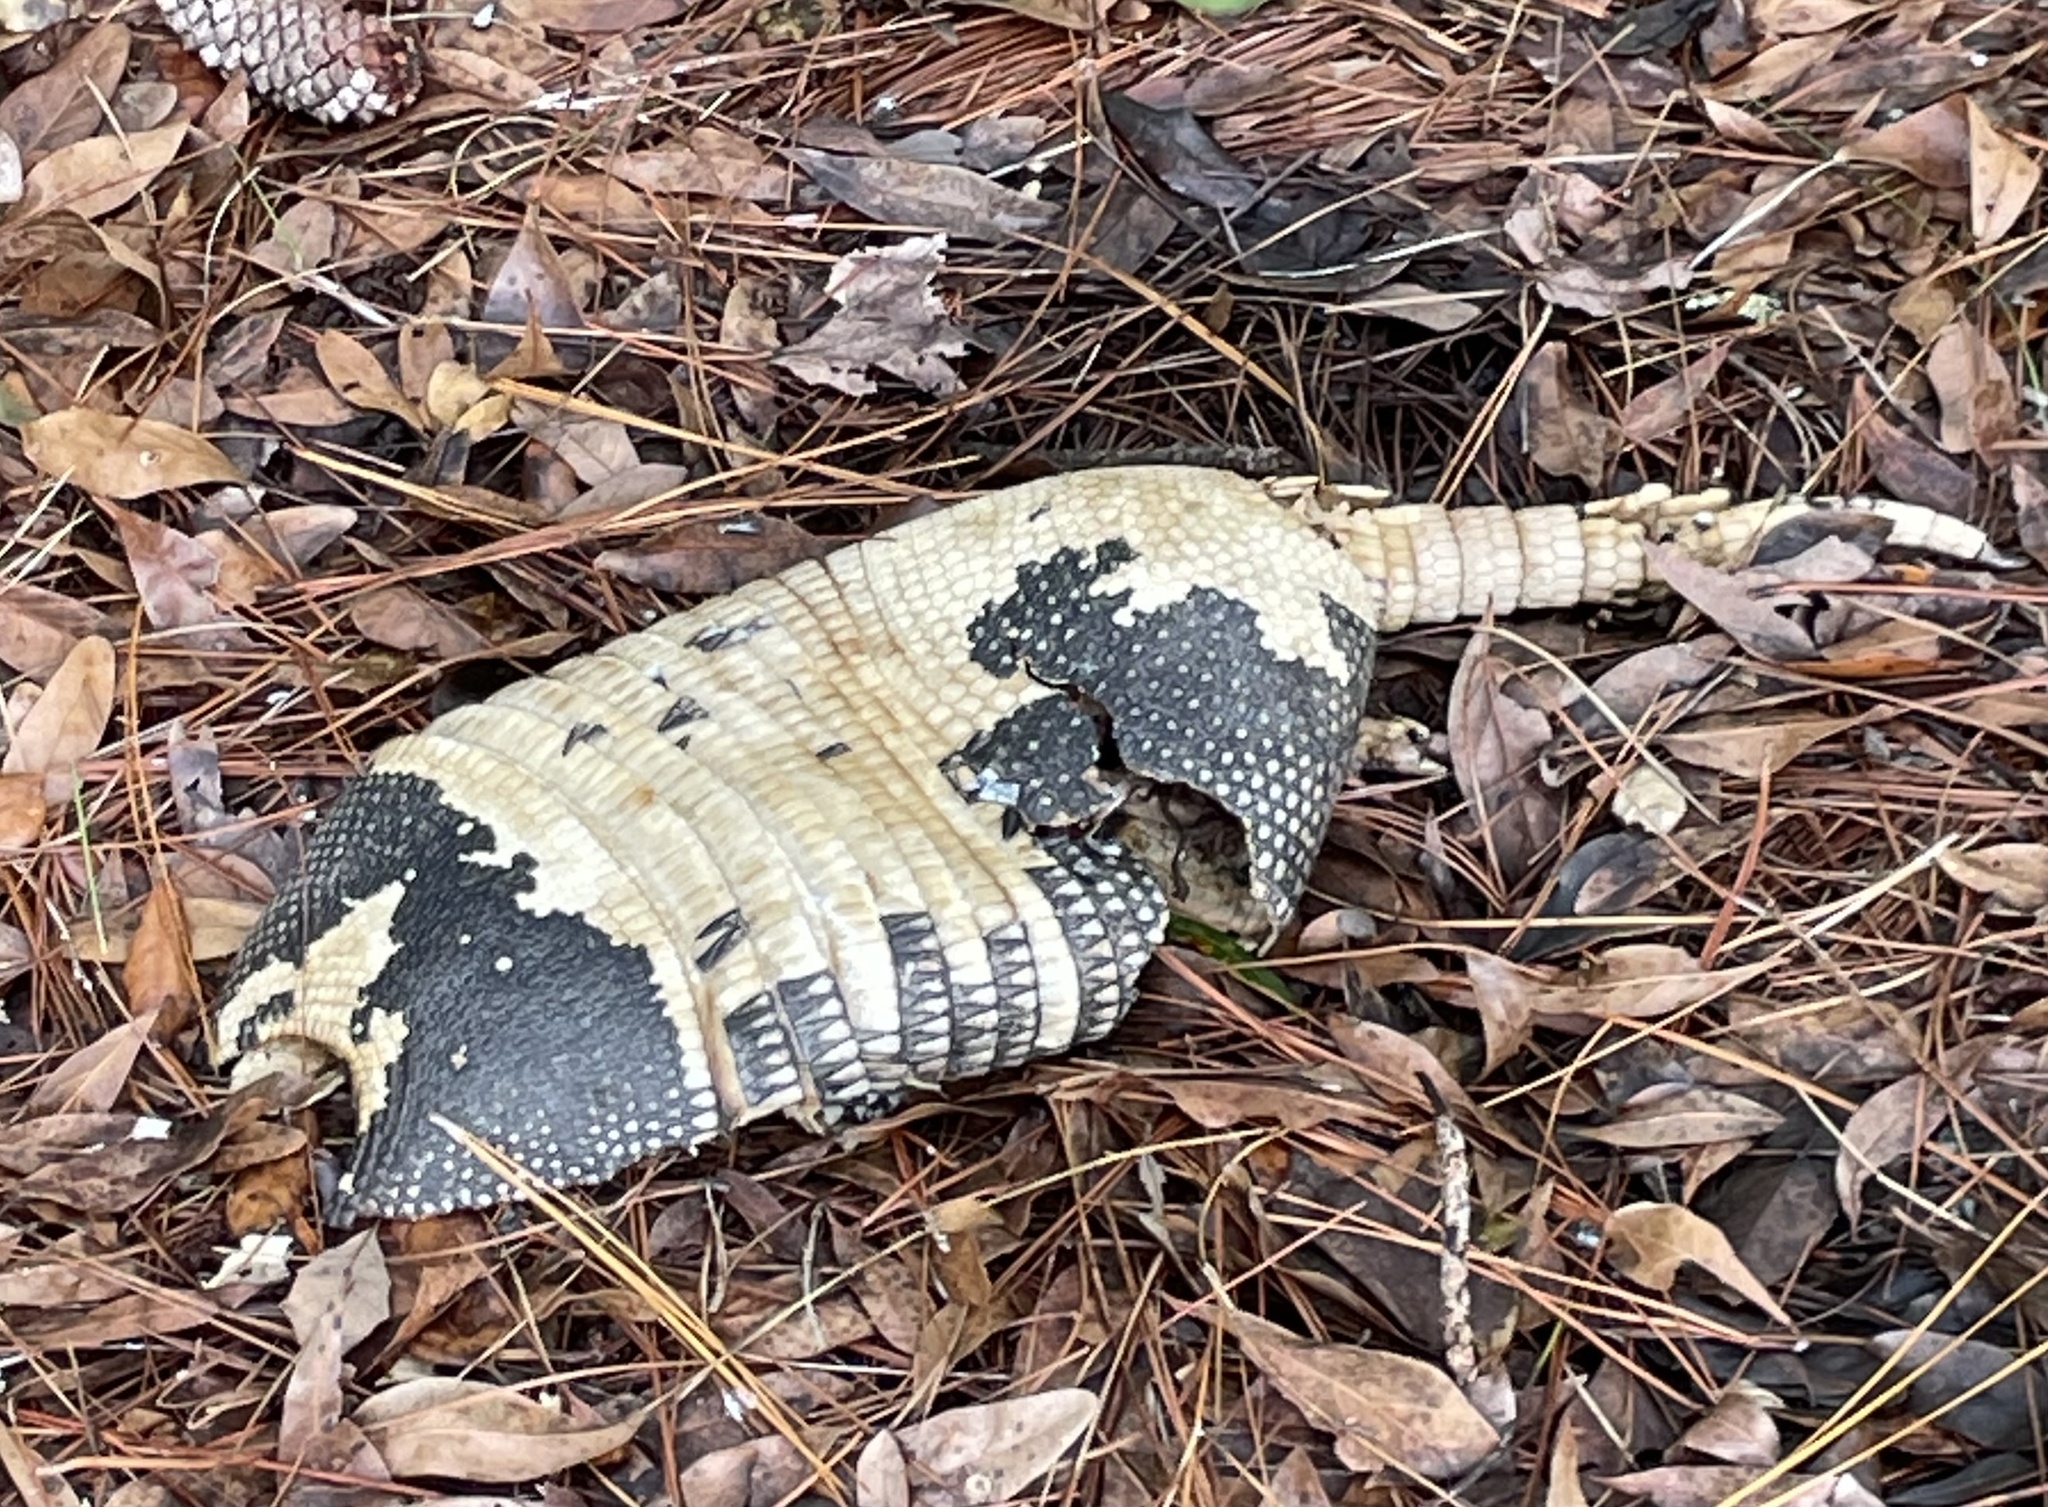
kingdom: Animalia
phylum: Chordata
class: Mammalia
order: Cingulata
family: Dasypodidae
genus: Dasypus
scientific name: Dasypus novemcinctus
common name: Nine-banded armadillo
